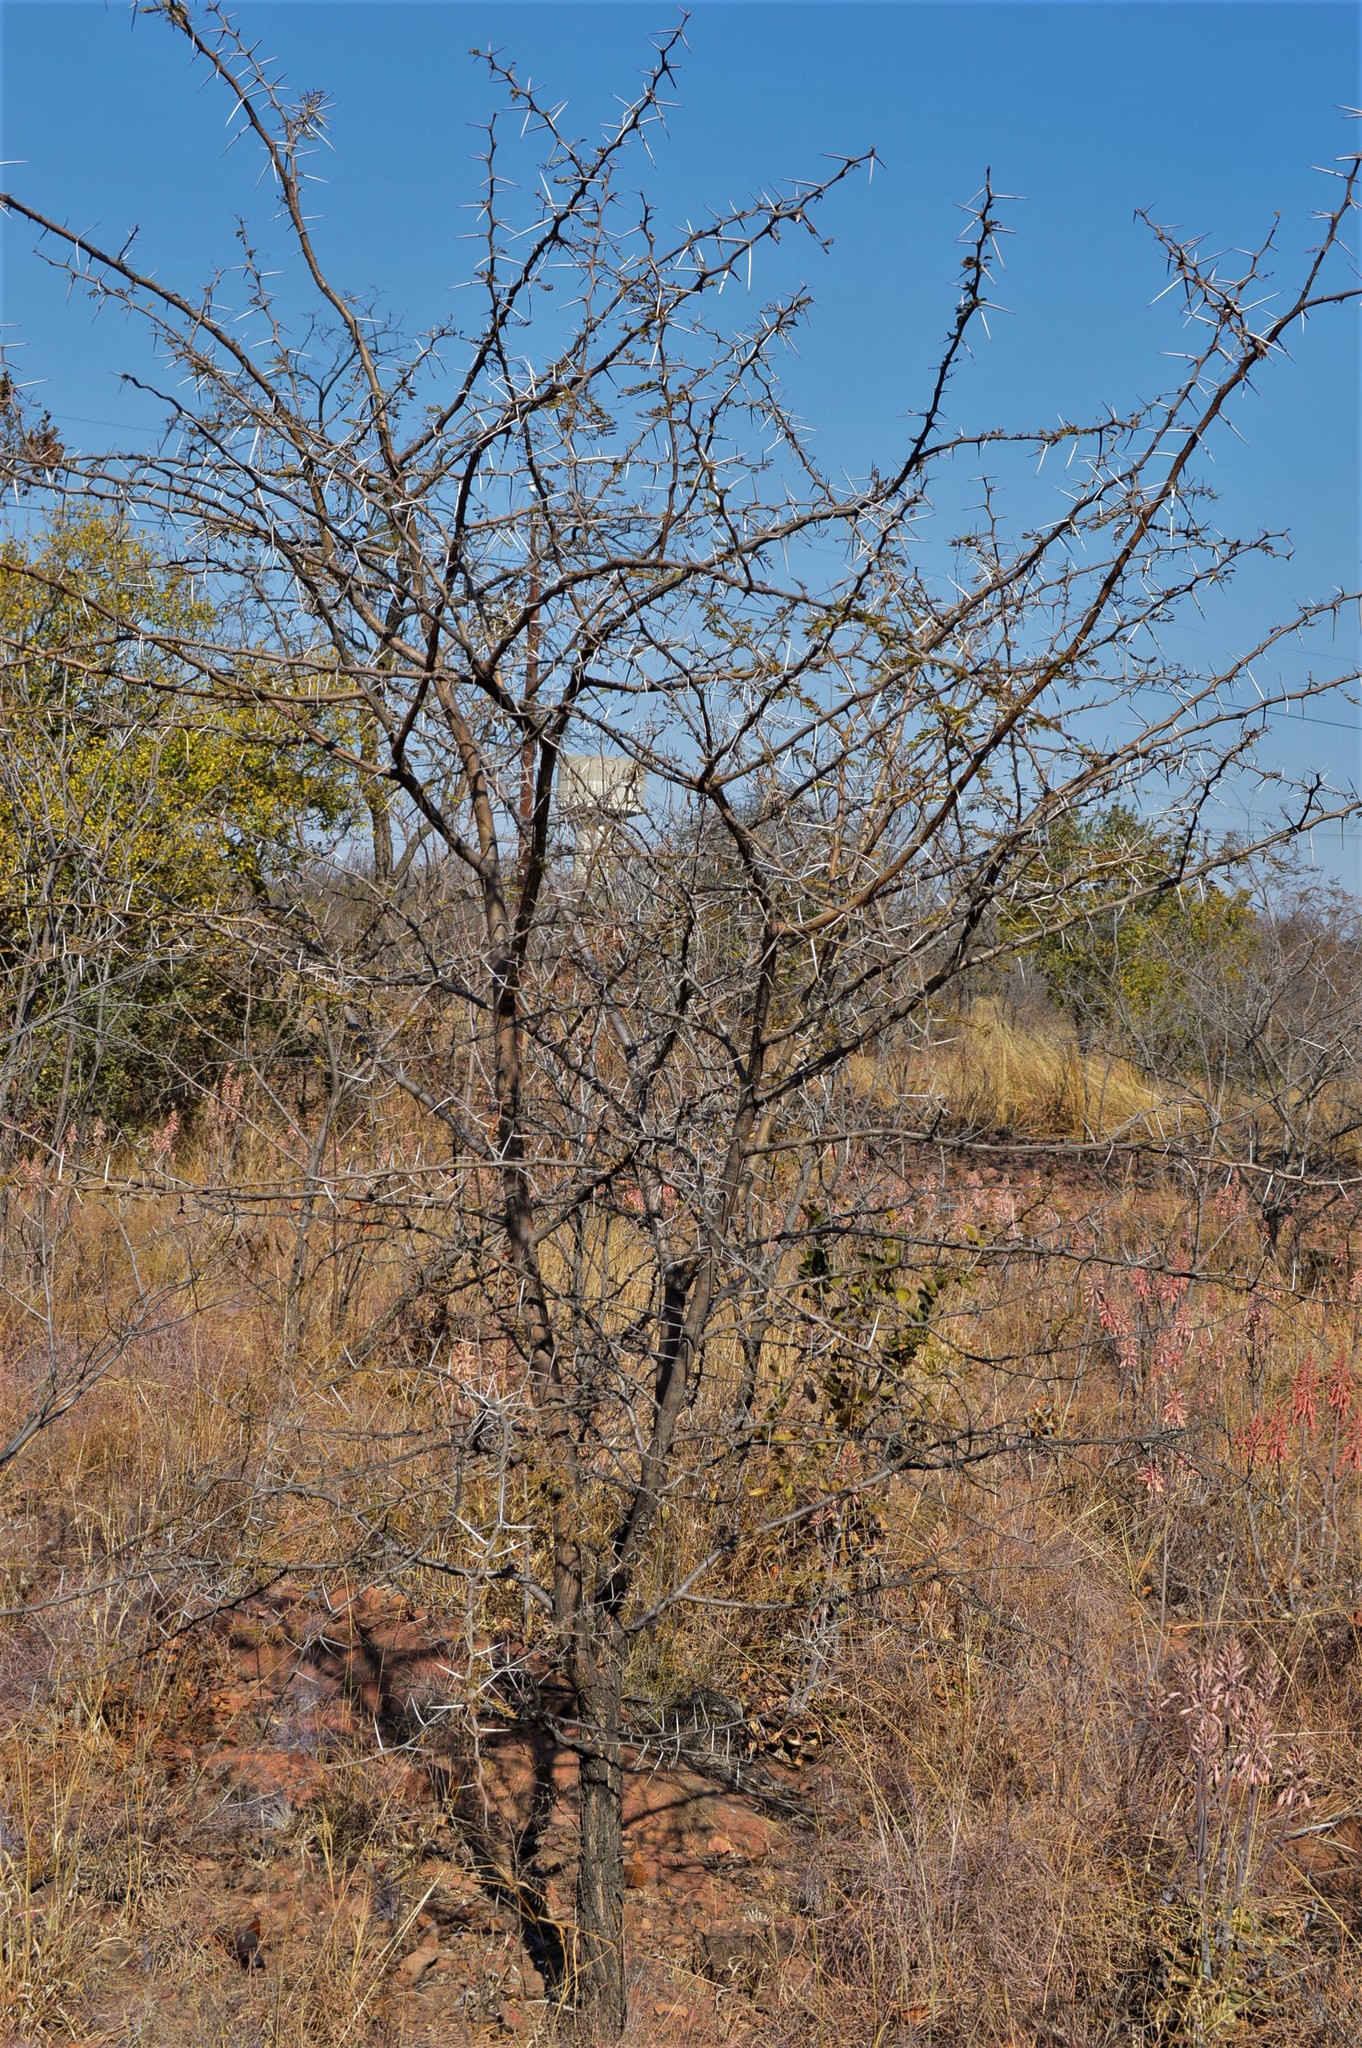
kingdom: Plantae
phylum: Tracheophyta
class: Magnoliopsida
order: Fabales
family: Fabaceae
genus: Vachellia
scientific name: Vachellia karroo
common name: Sweet thorn
